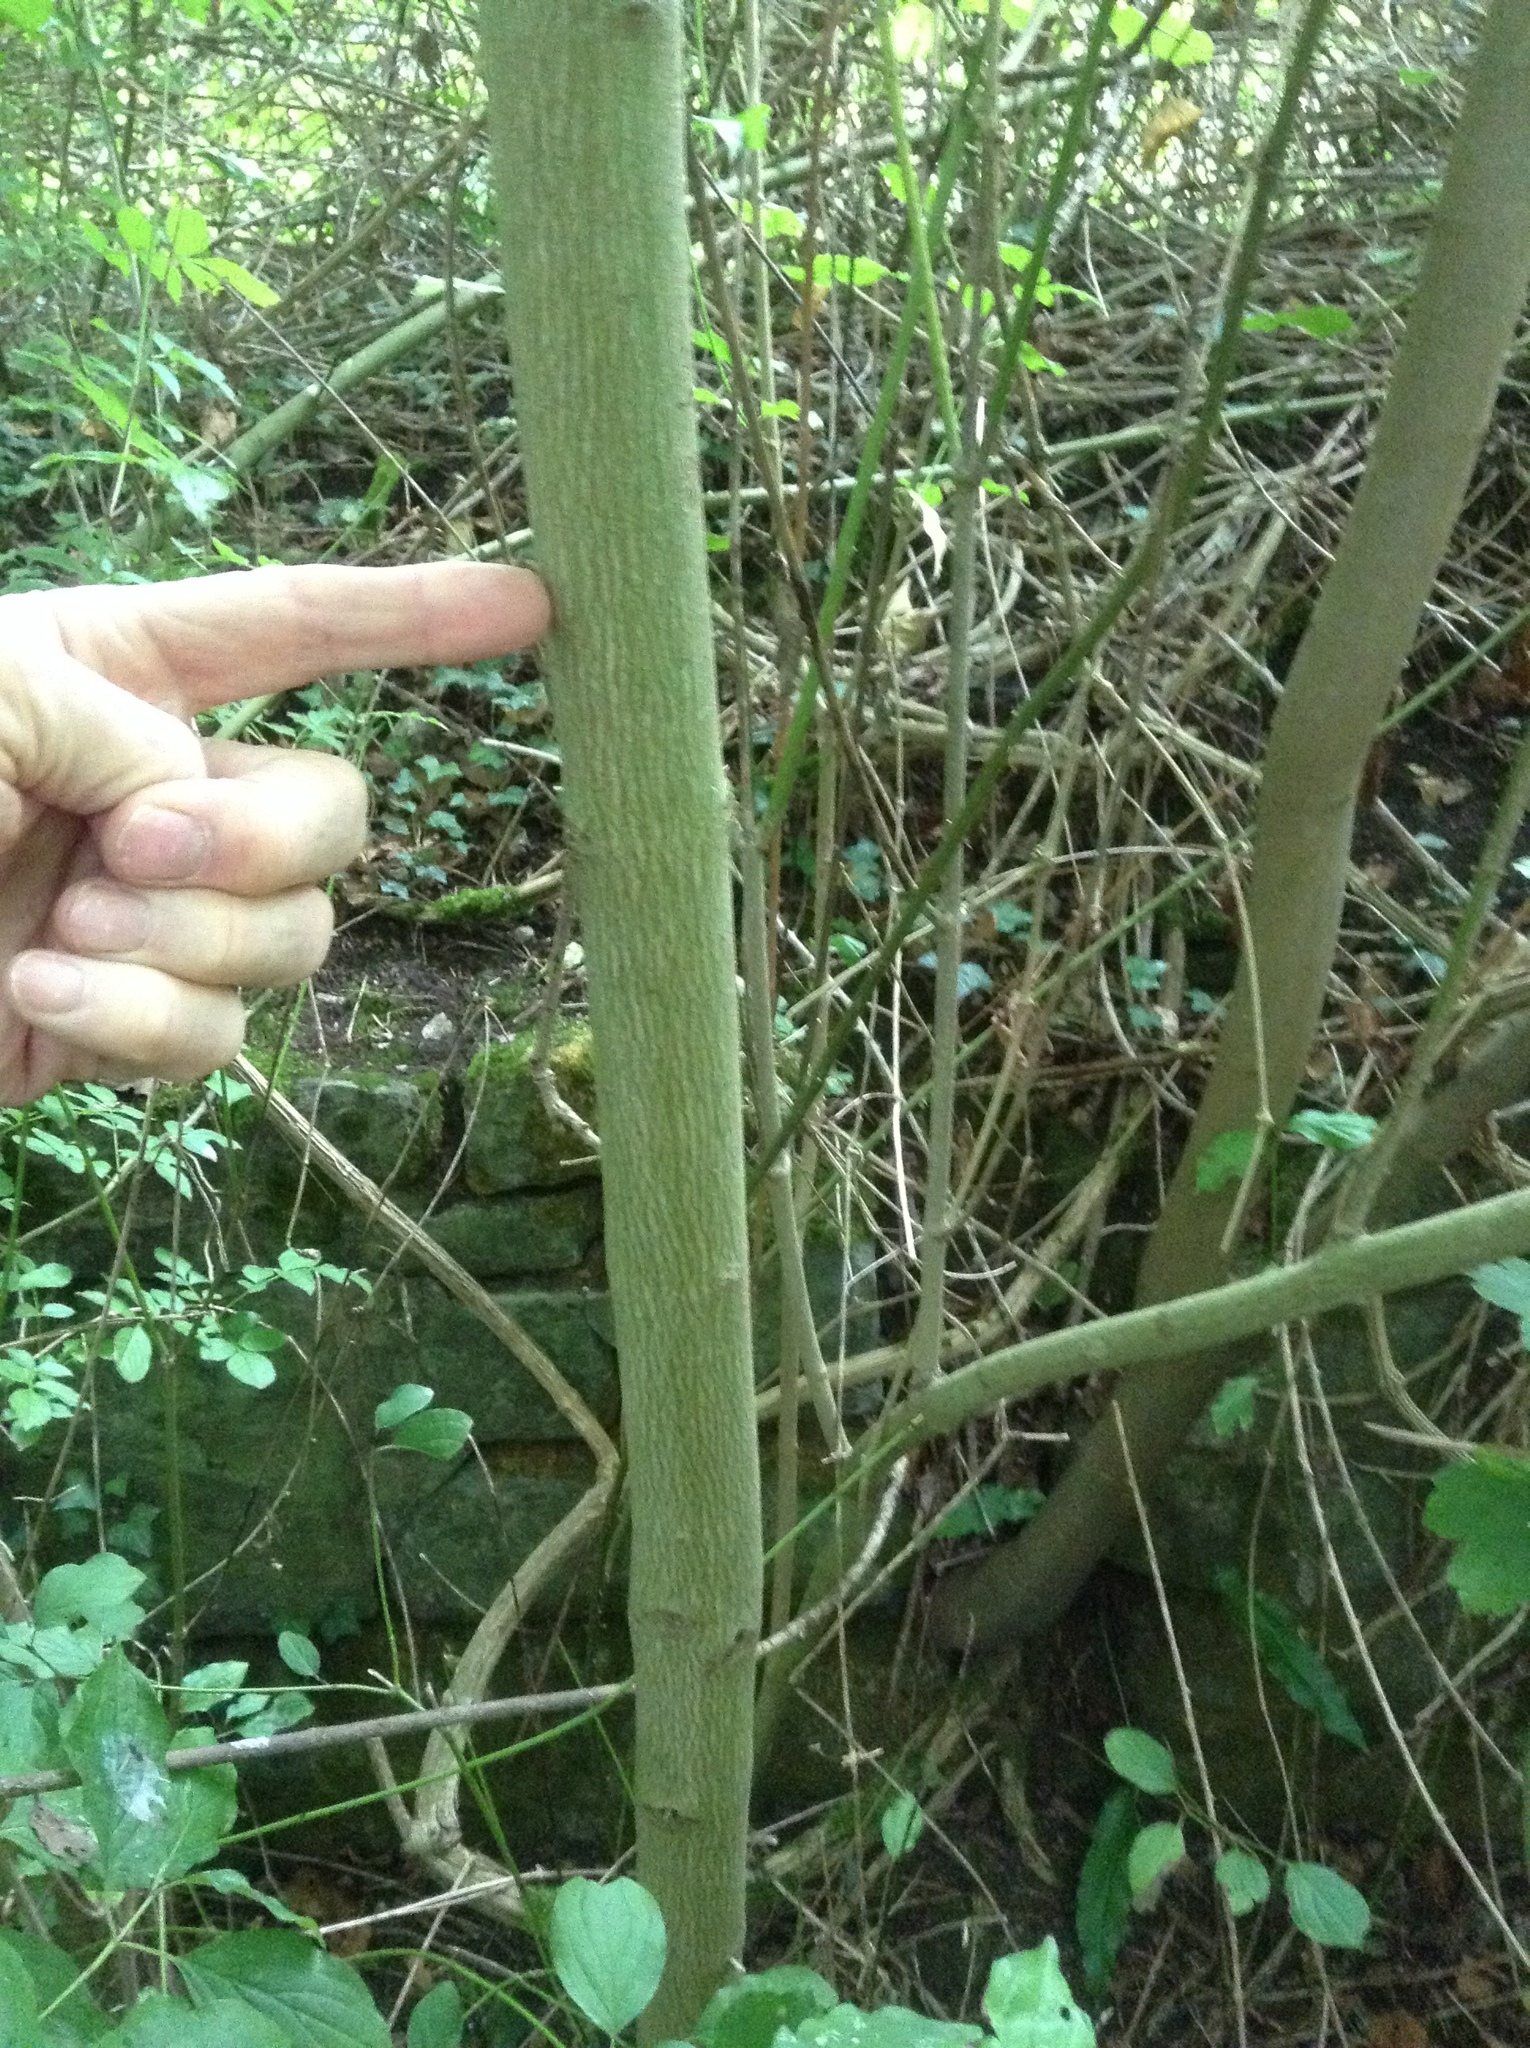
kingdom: Plantae
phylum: Tracheophyta
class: Magnoliopsida
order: Cornales
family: Cornaceae
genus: Cornus
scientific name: Cornus sanguinea
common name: Dogwood
